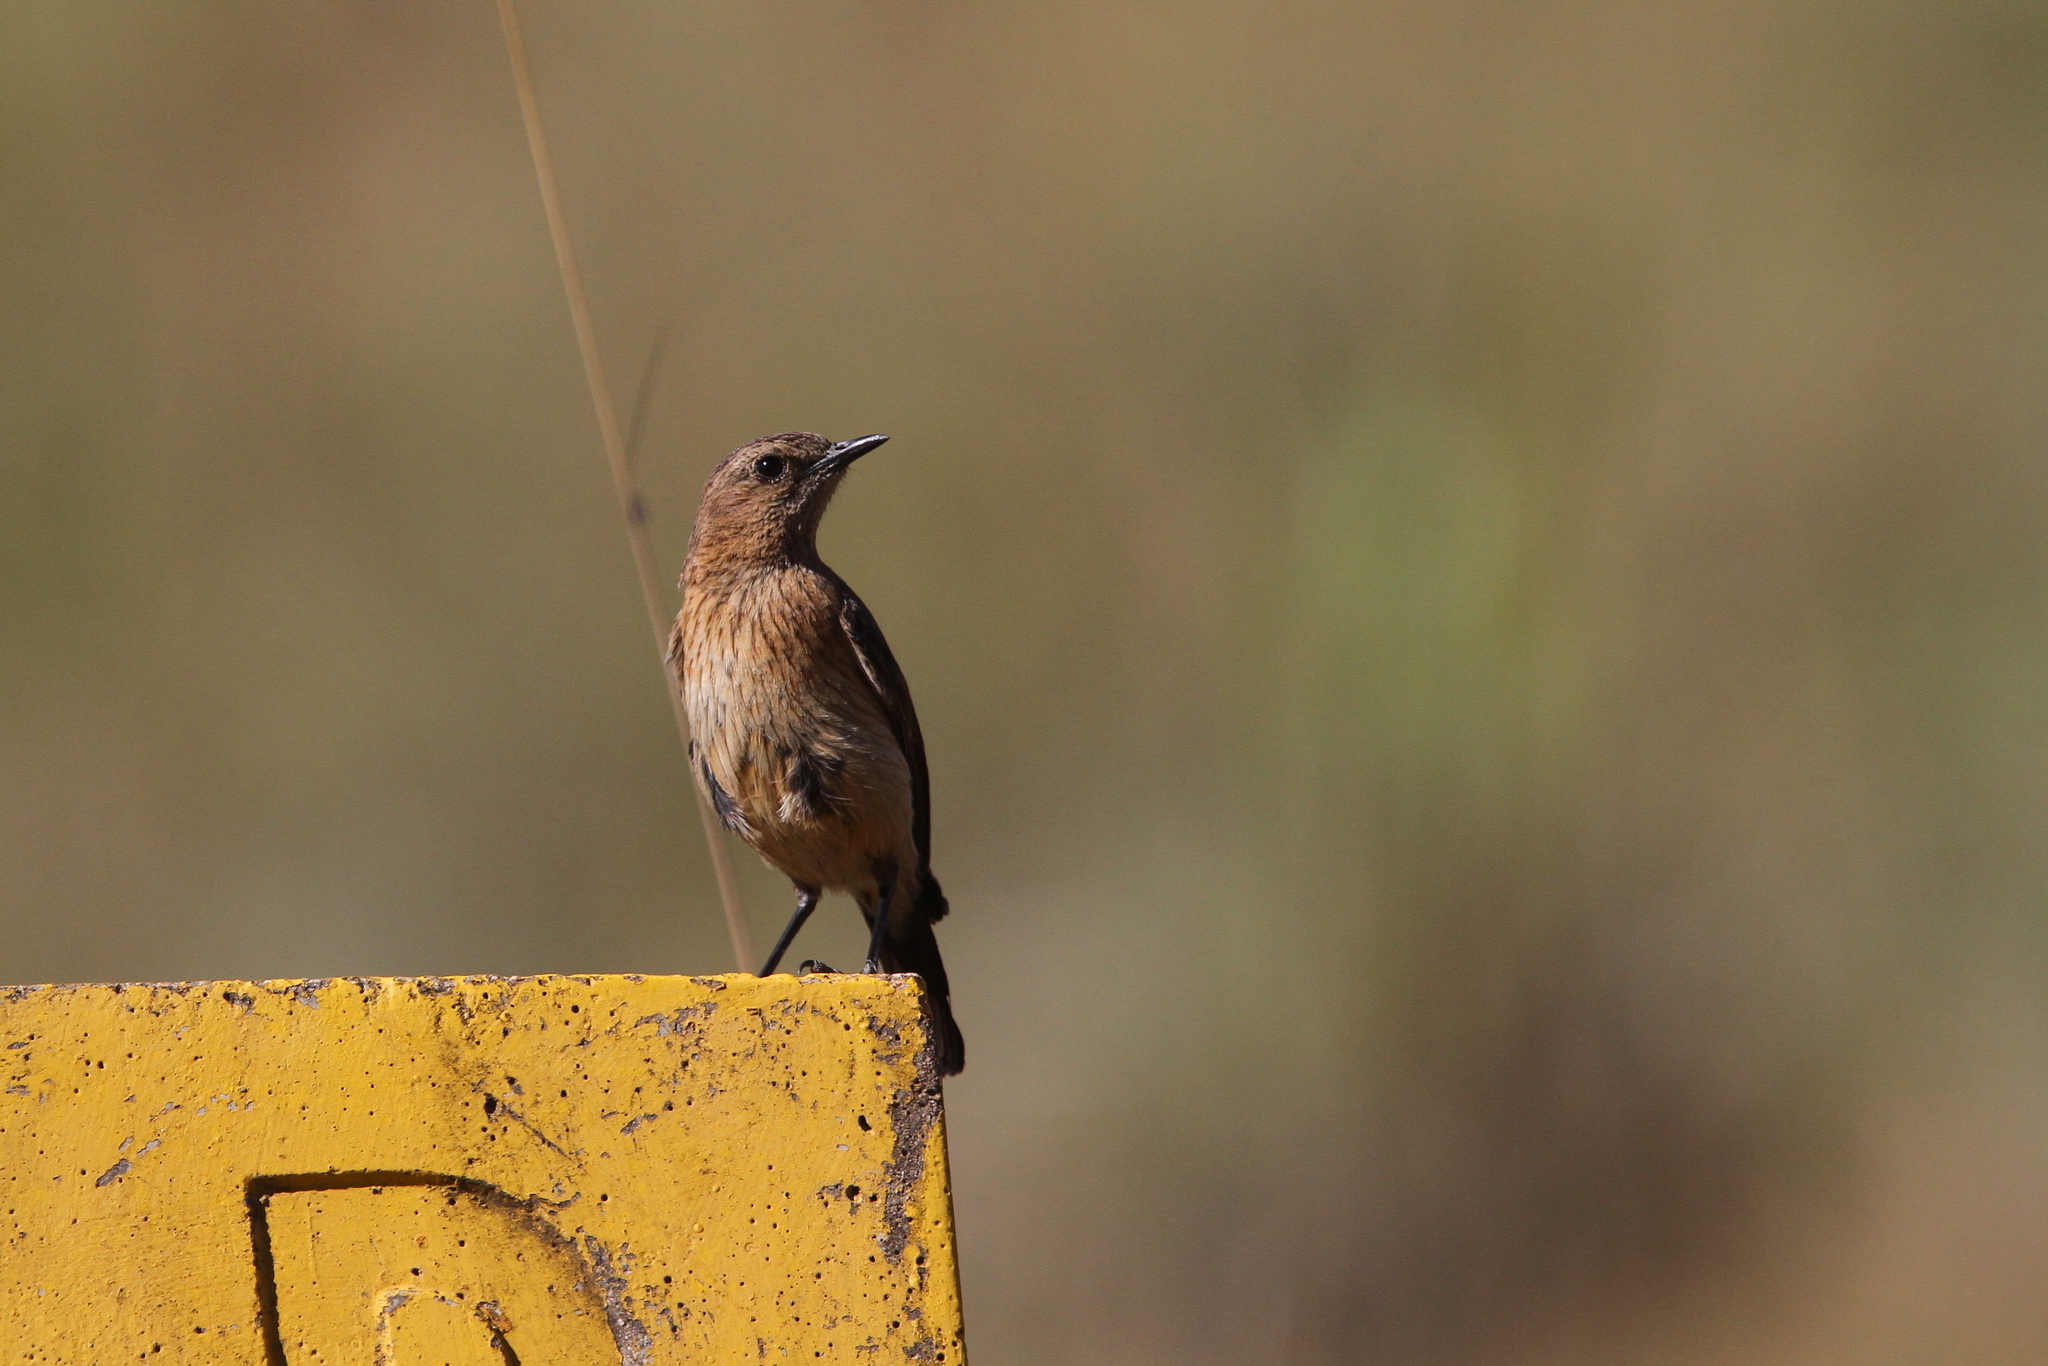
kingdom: Animalia
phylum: Chordata
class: Aves
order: Passeriformes
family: Muscicapidae
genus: Campicoloides
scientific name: Campicoloides bifasciatus
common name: Buff-streaked chat
